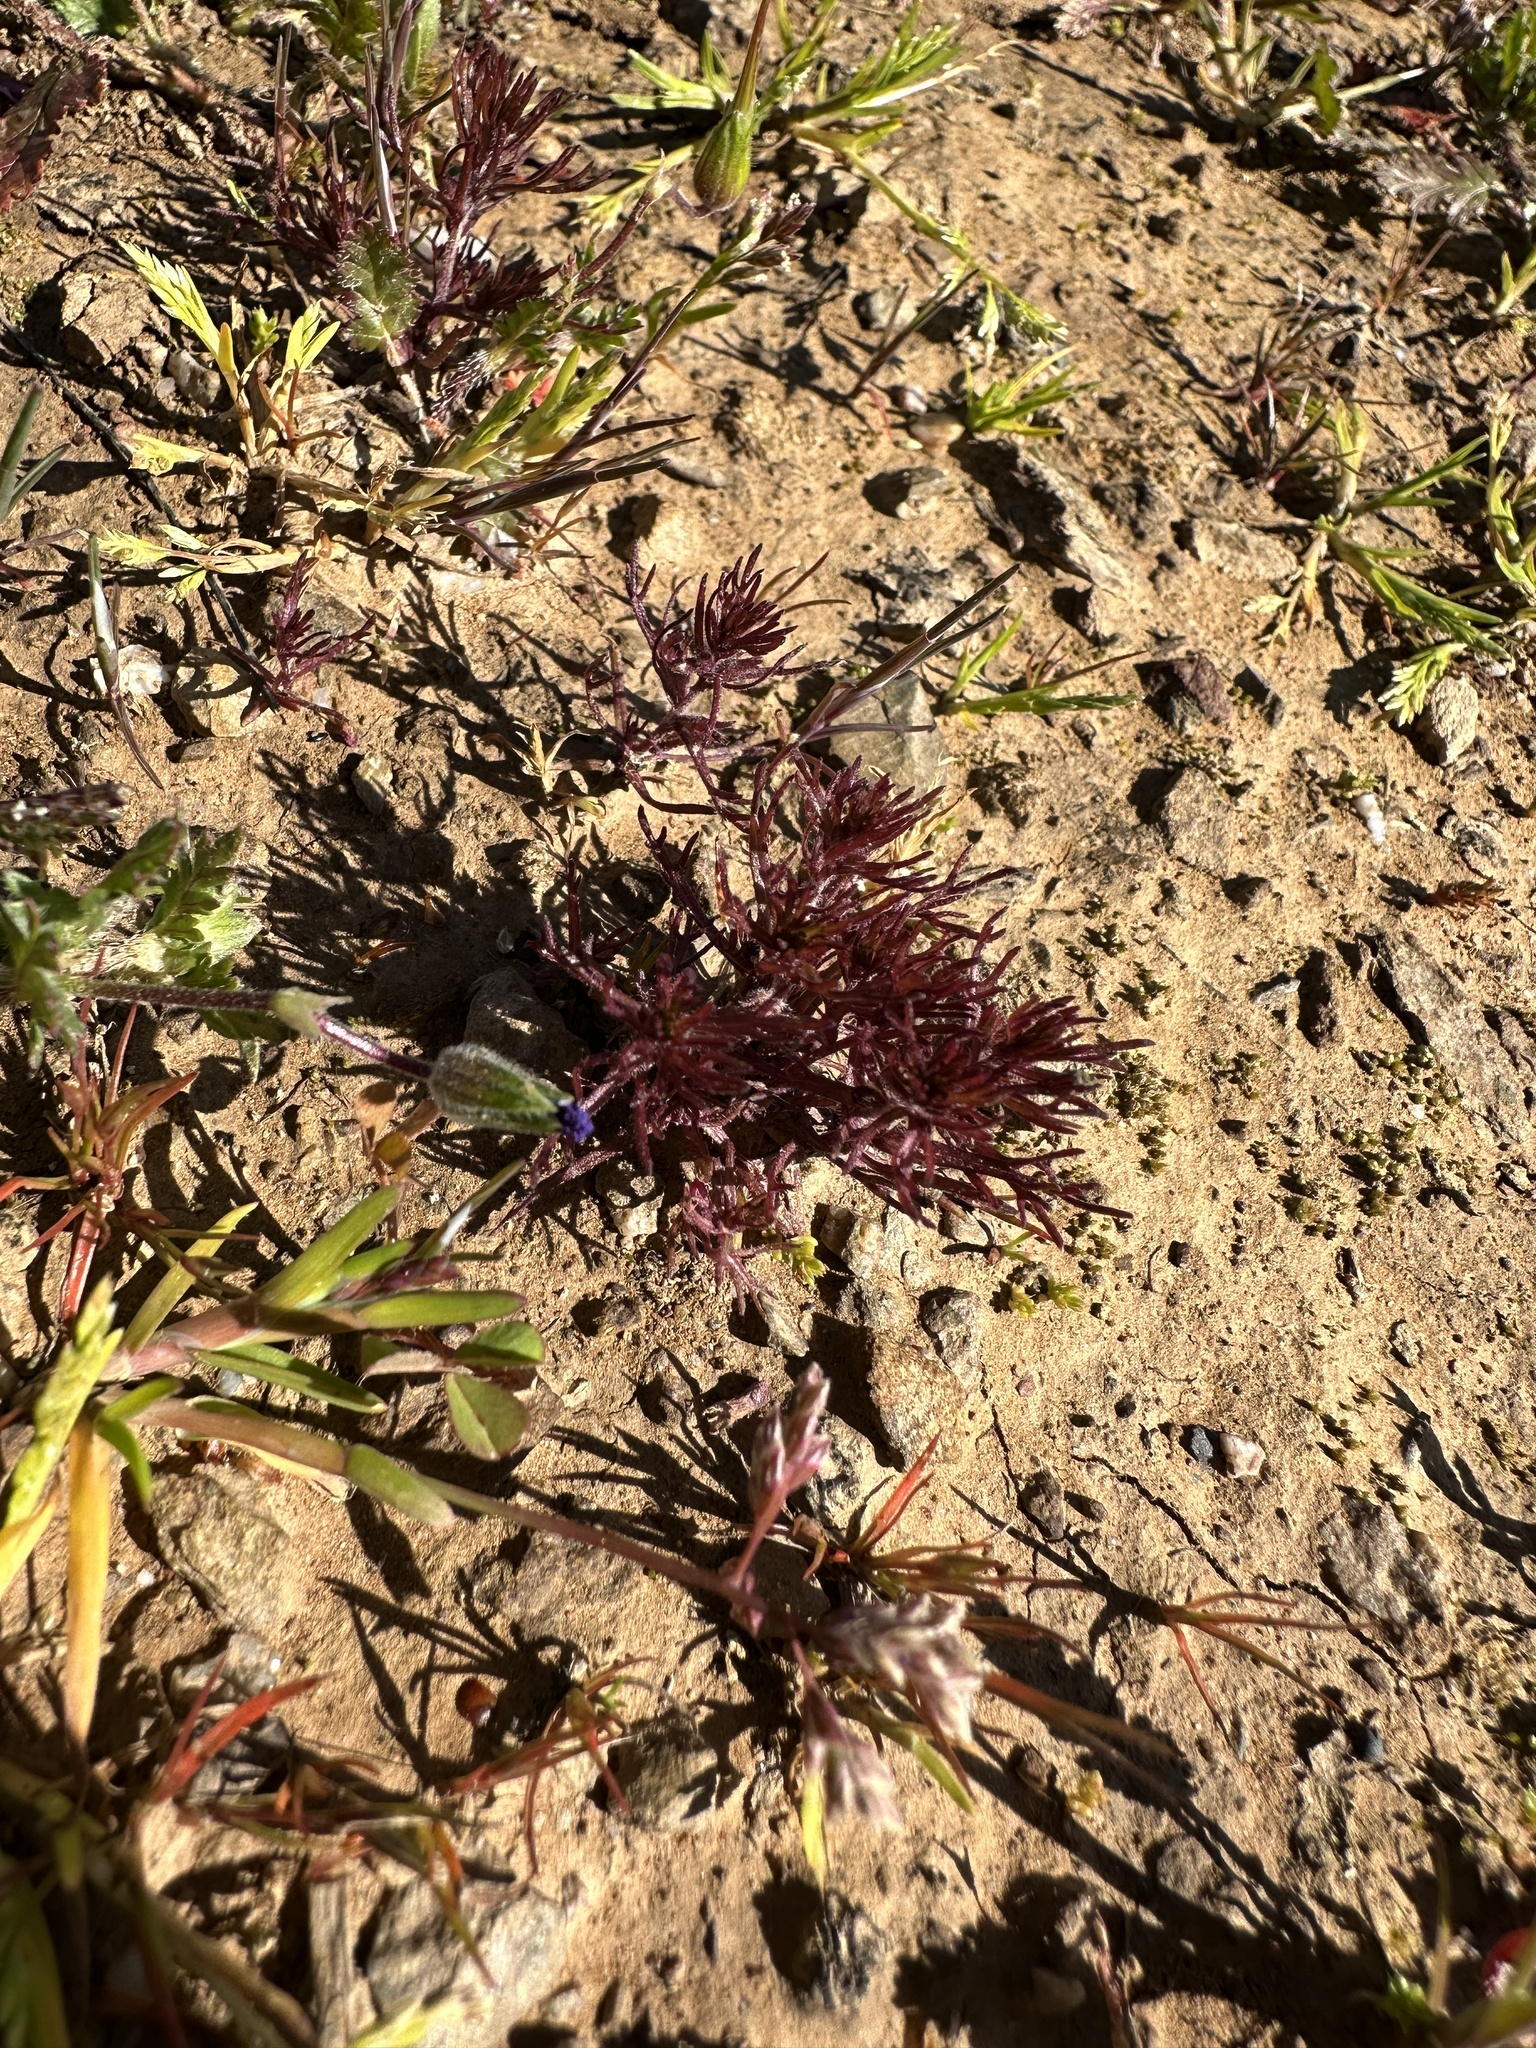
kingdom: Plantae
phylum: Tracheophyta
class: Magnoliopsida
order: Lamiales
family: Orobanchaceae
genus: Triphysaria
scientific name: Triphysaria pusilla
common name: Dwarf false owl-clover
